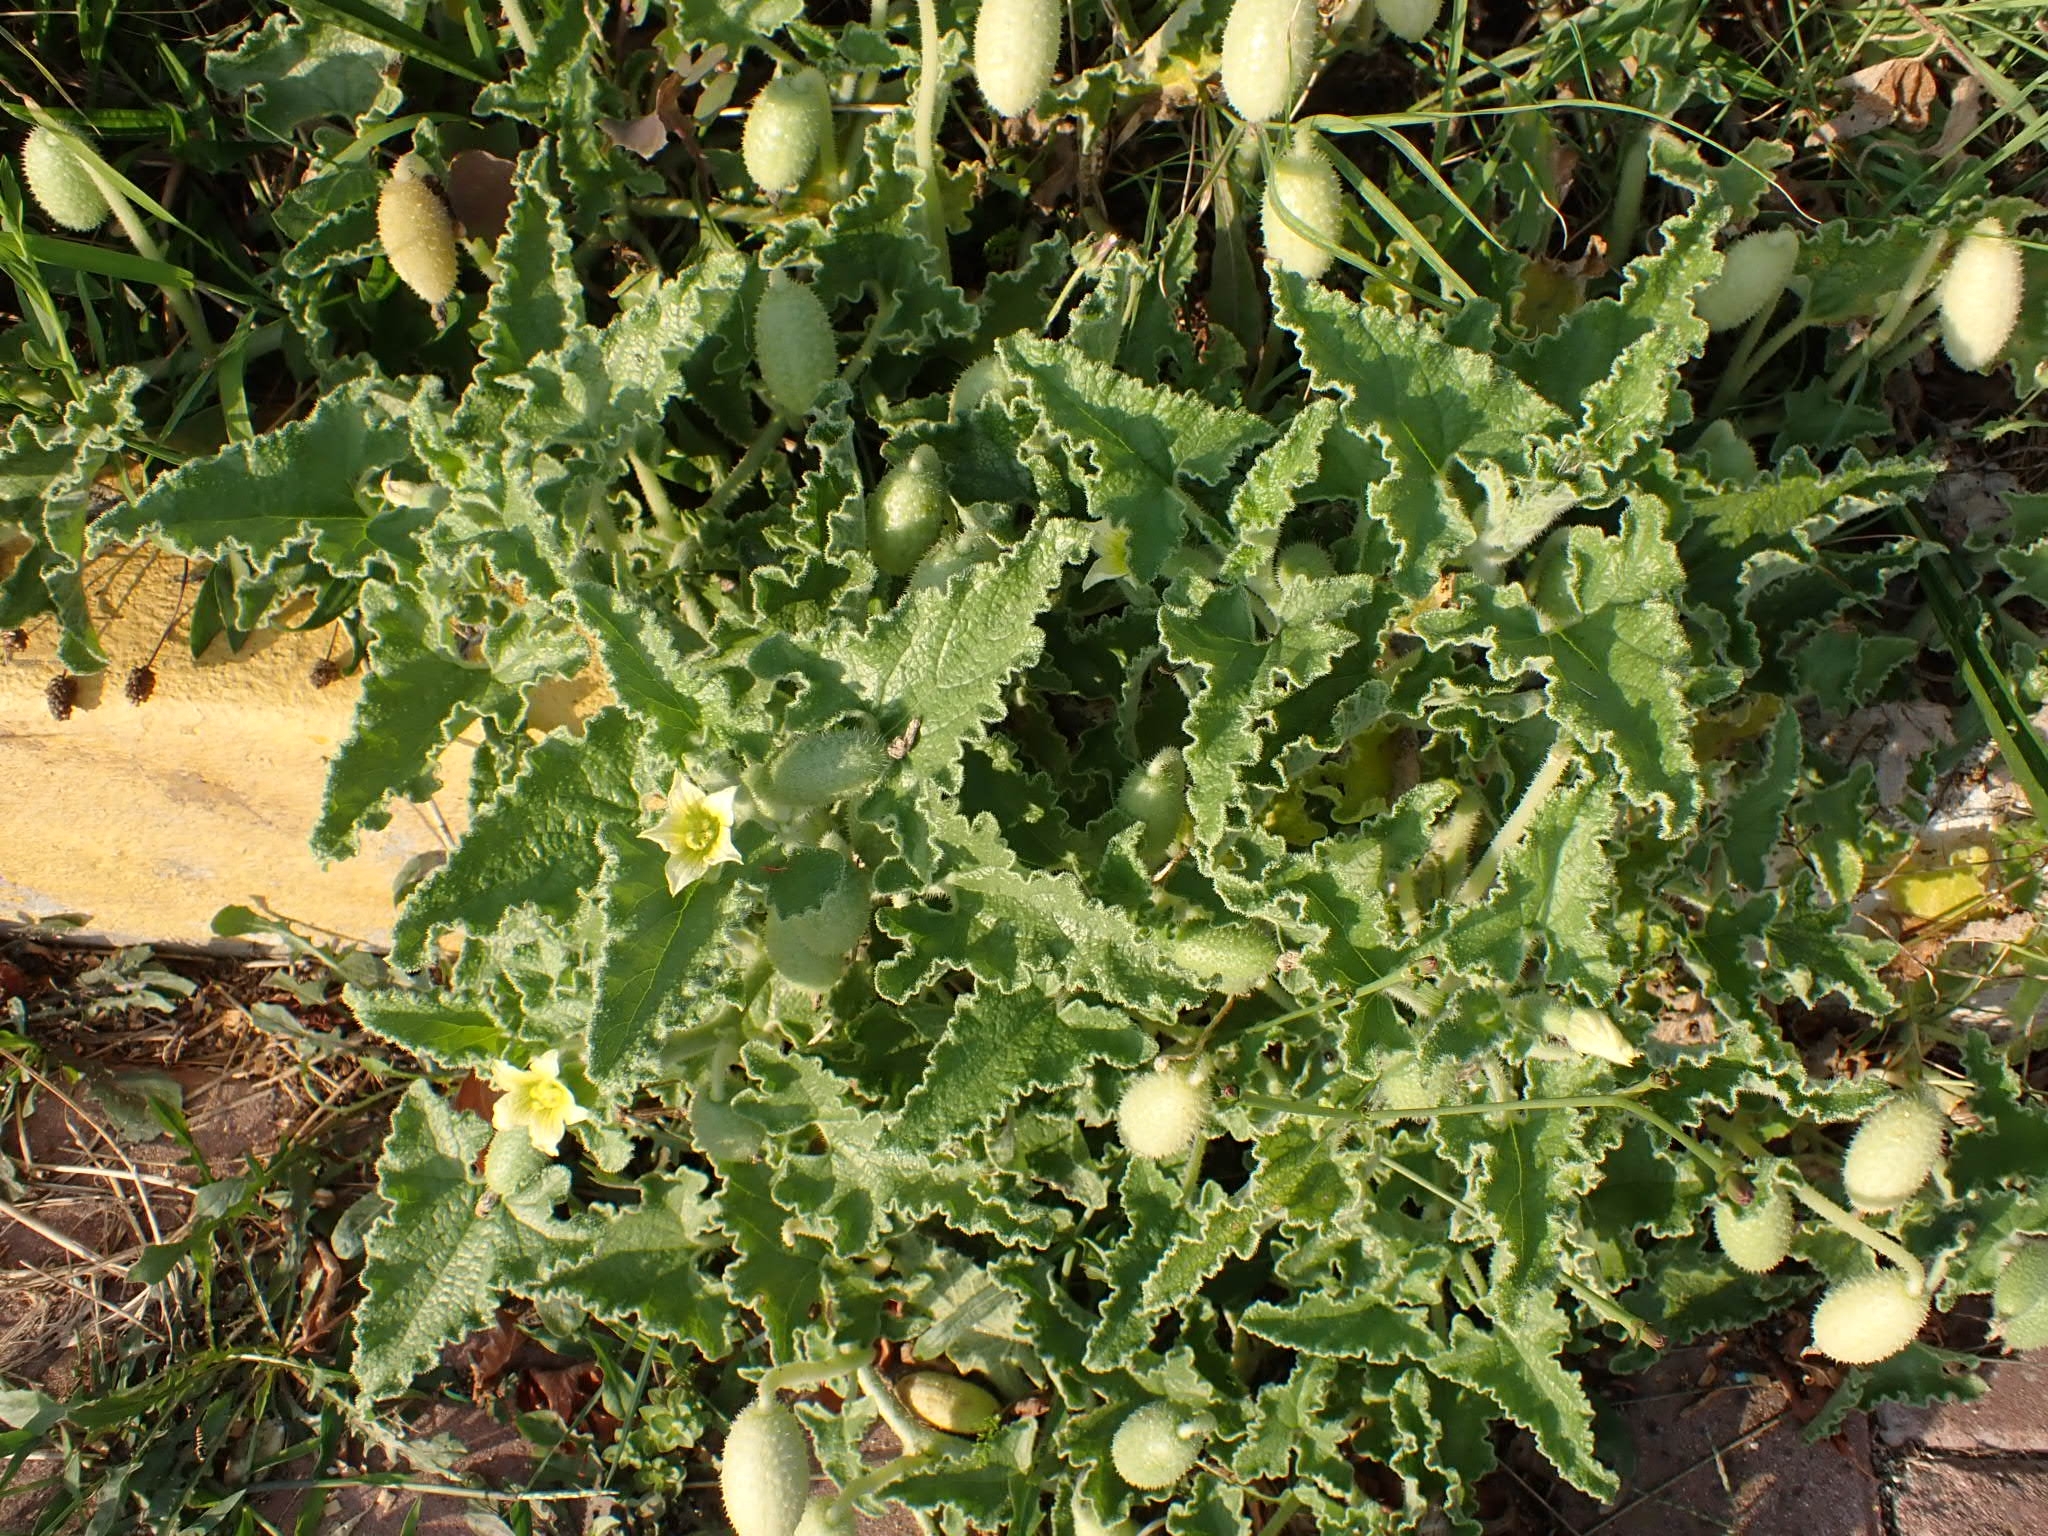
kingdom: Plantae
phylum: Tracheophyta
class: Magnoliopsida
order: Cucurbitales
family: Cucurbitaceae
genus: Ecballium
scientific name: Ecballium elaterium
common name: Squirting cucumber
